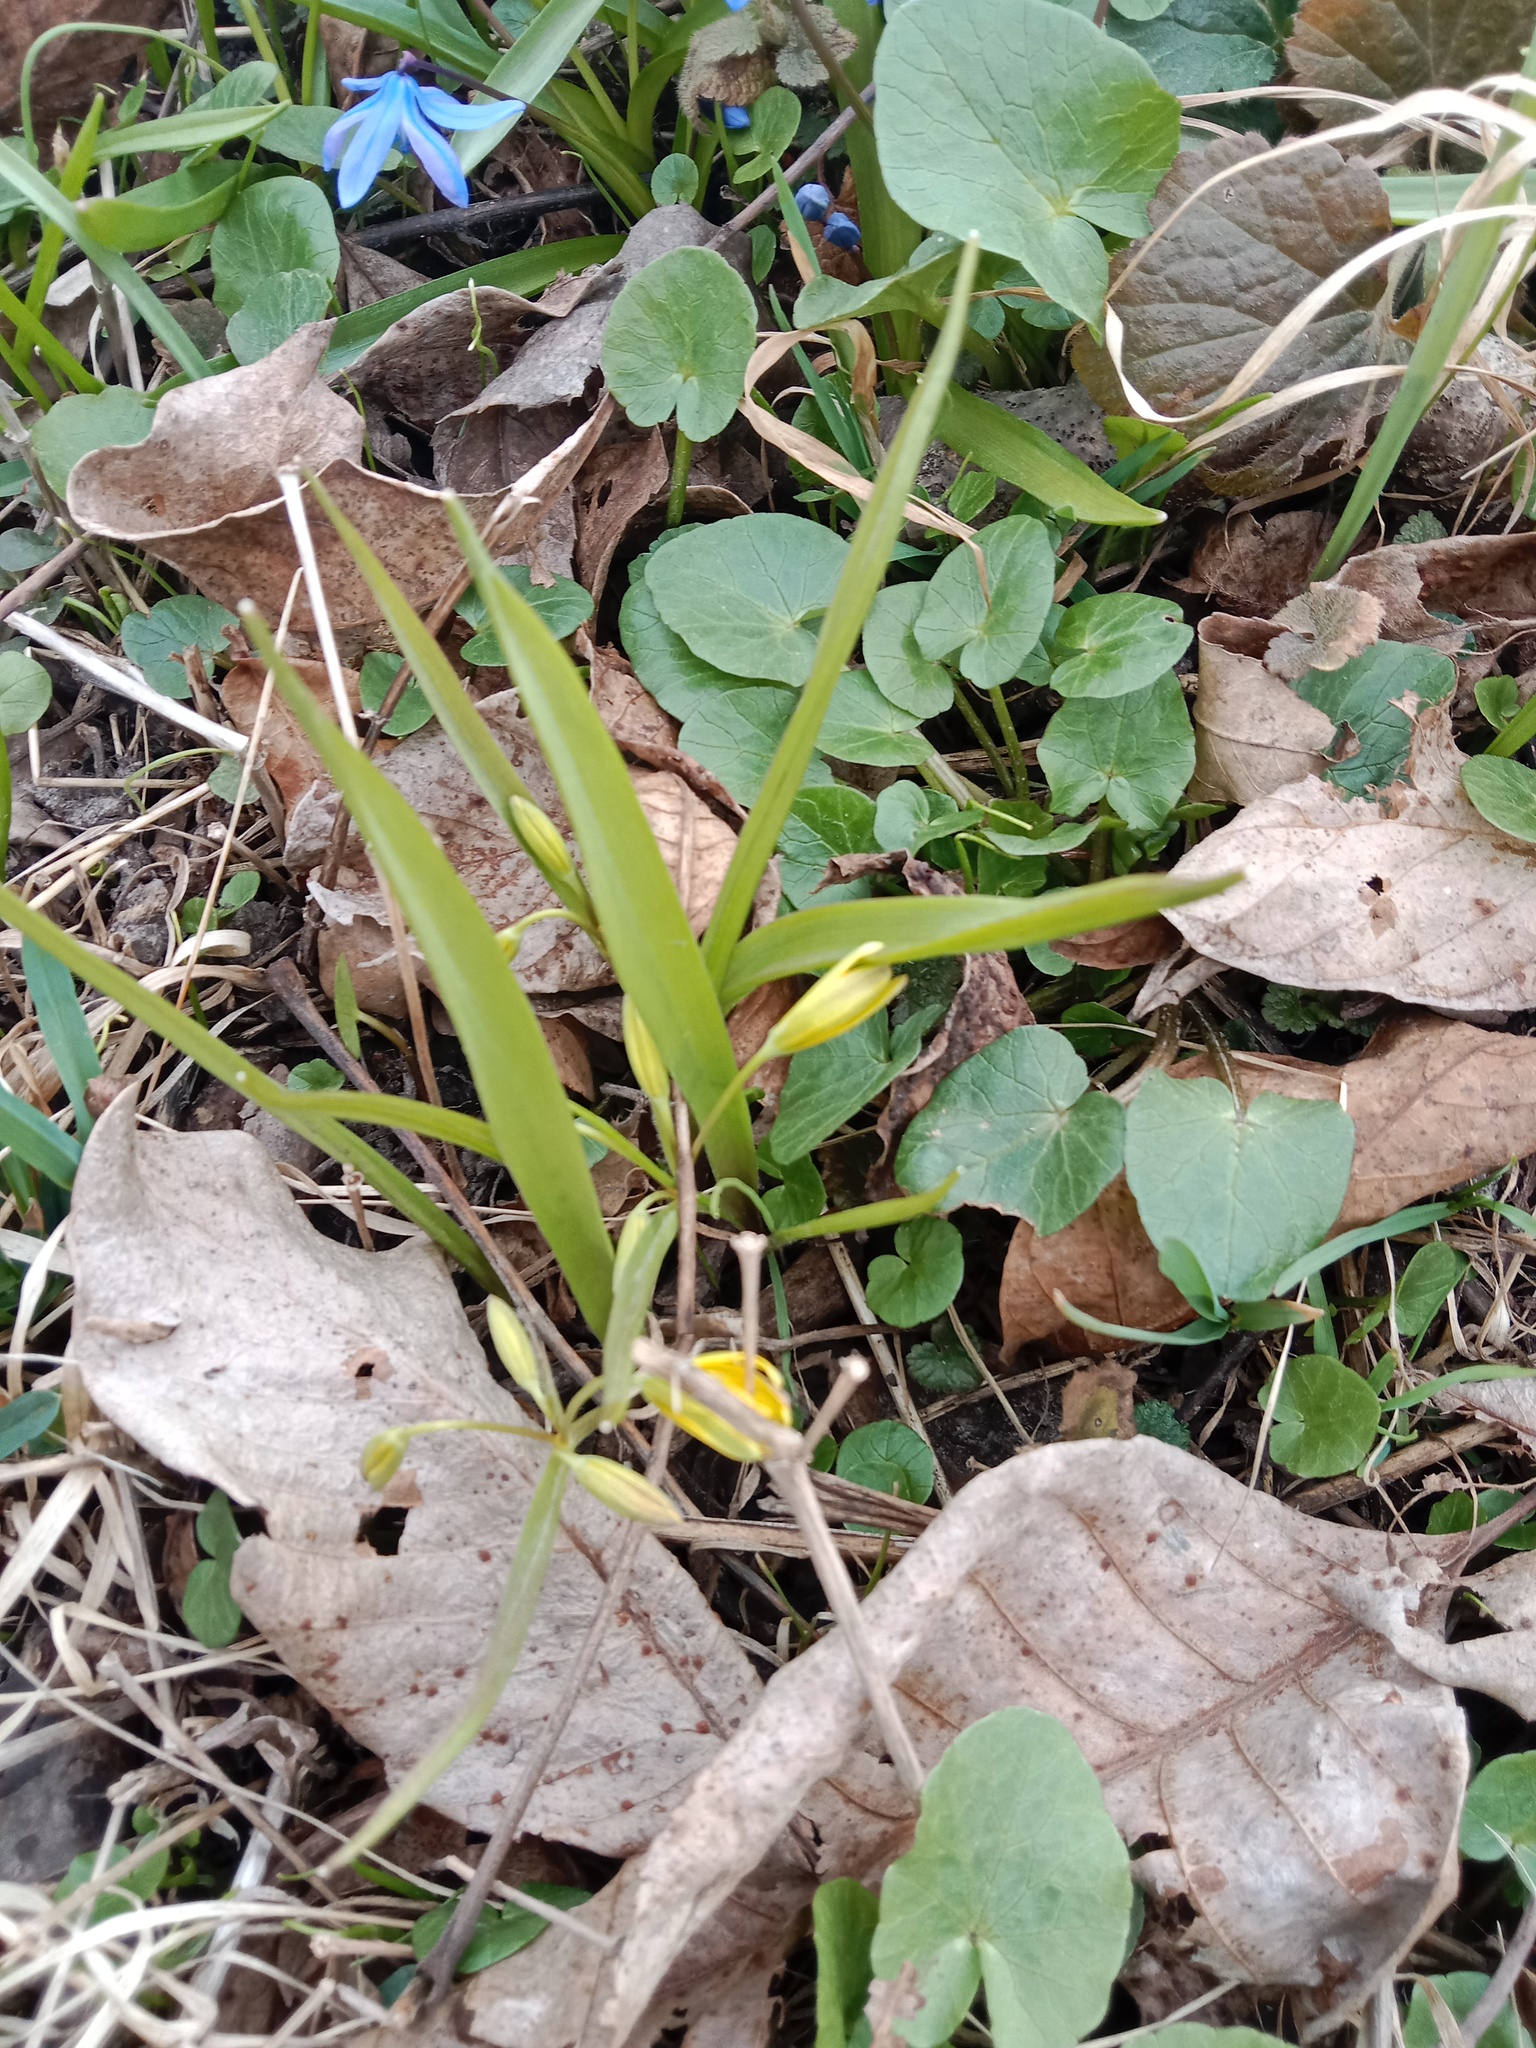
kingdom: Plantae
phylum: Tracheophyta
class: Liliopsida
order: Liliales
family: Liliaceae
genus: Gagea
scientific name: Gagea lutea
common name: Yellow star-of-bethlehem
